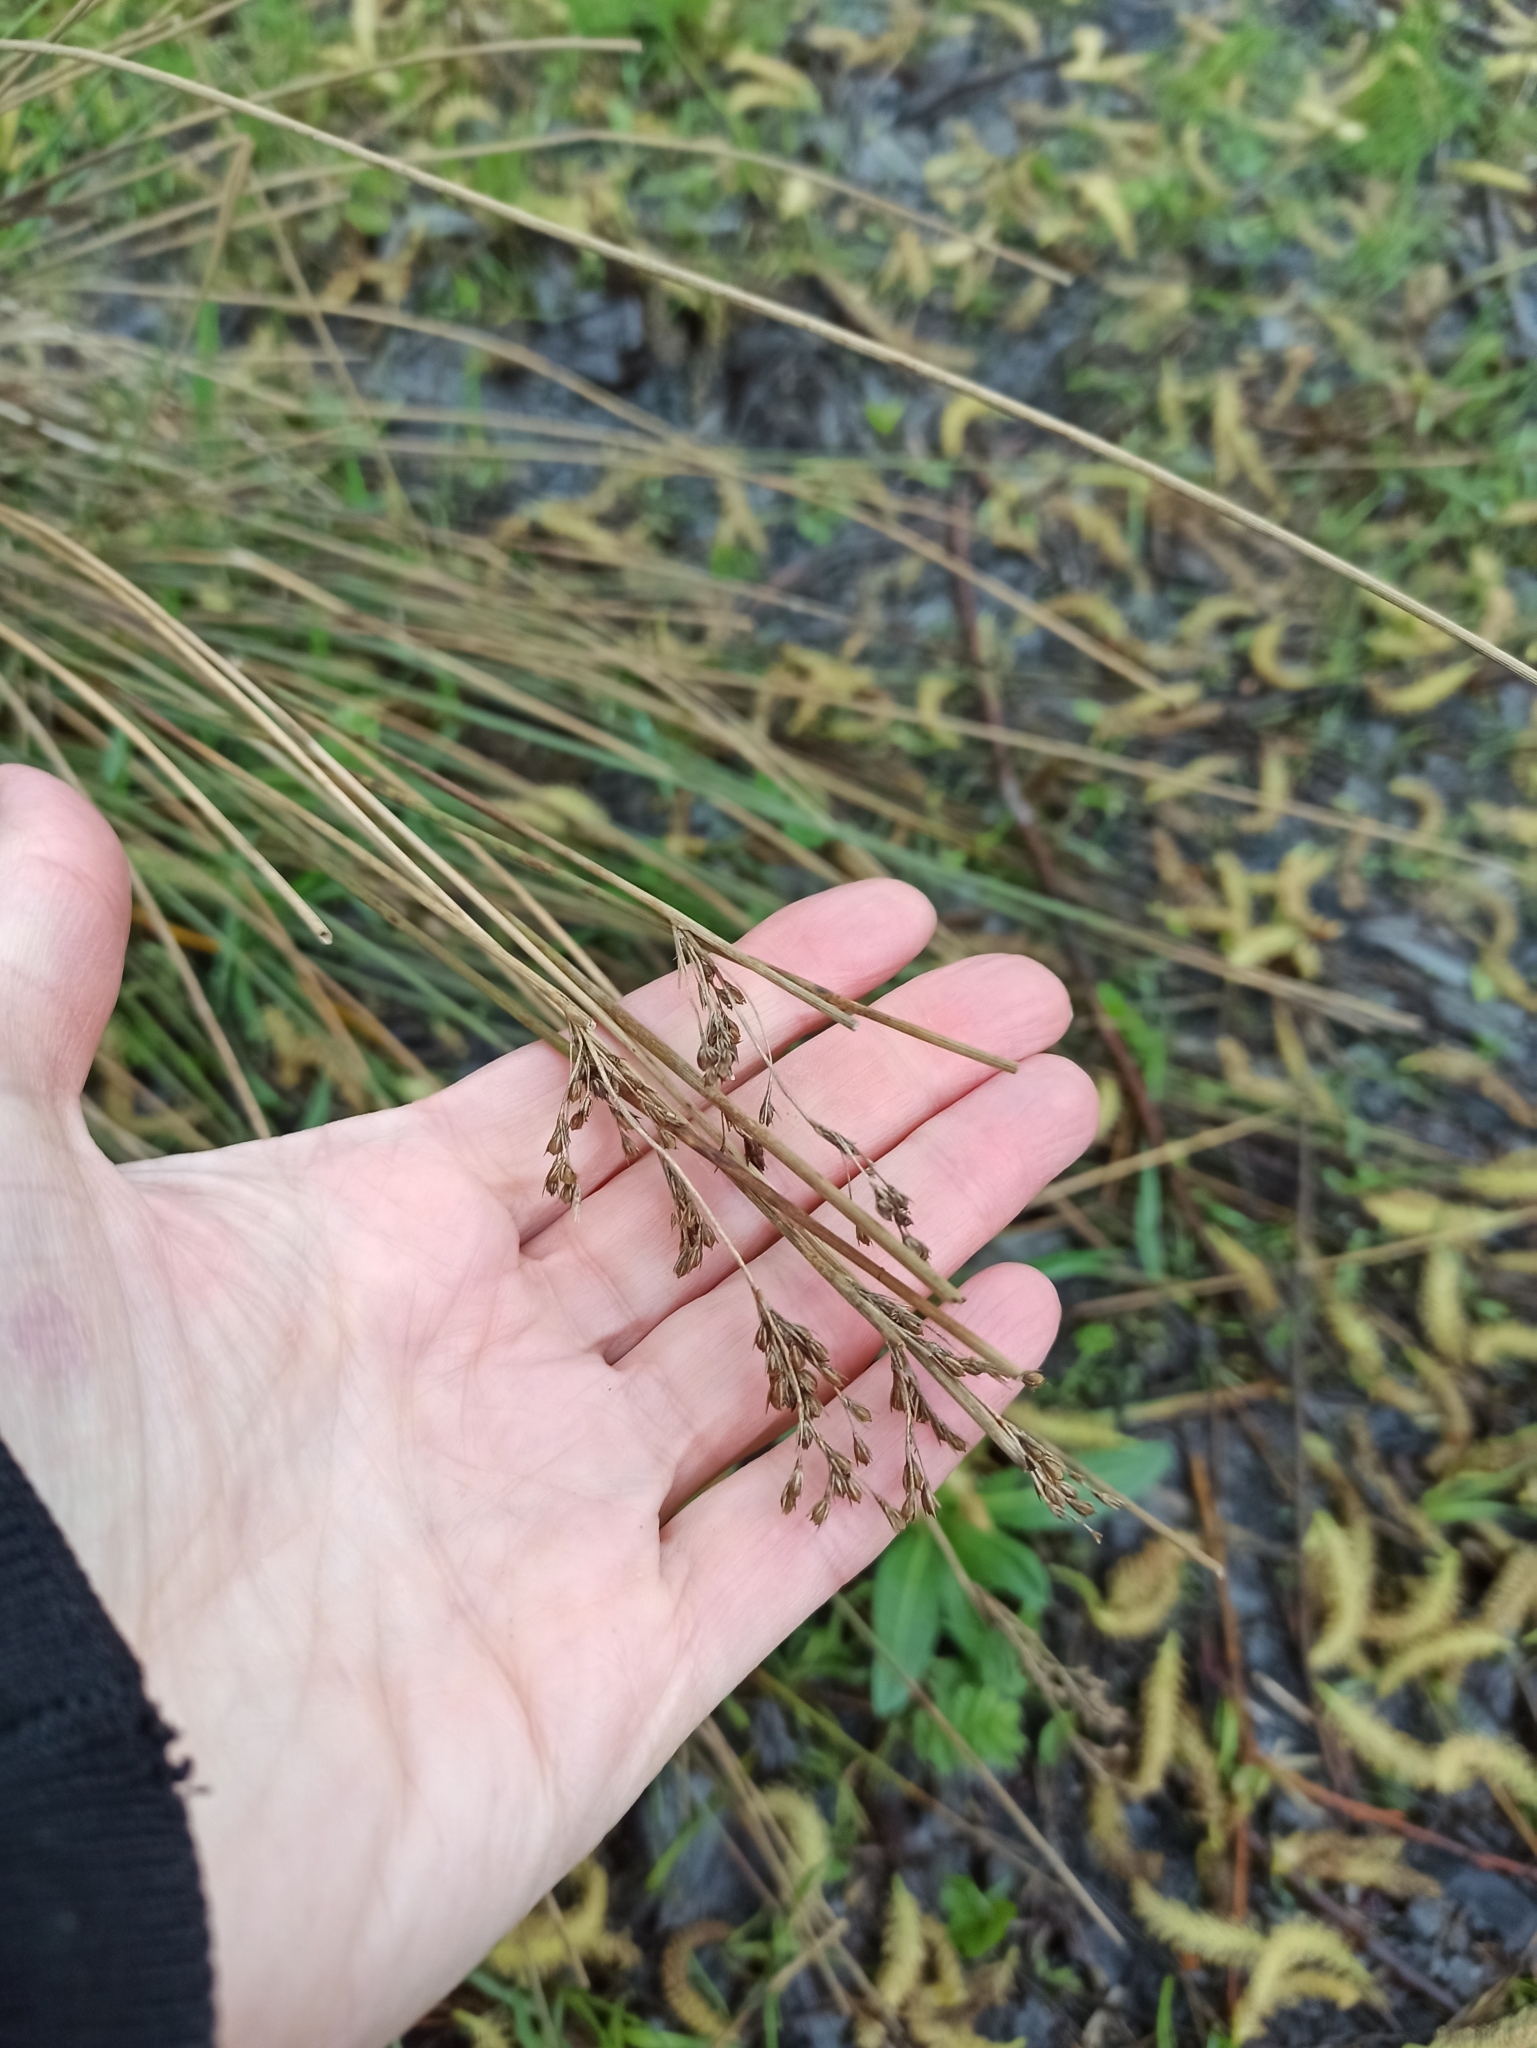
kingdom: Plantae
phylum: Tracheophyta
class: Liliopsida
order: Poales
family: Juncaceae
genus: Juncus
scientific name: Juncus inflexus
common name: Hard rush
